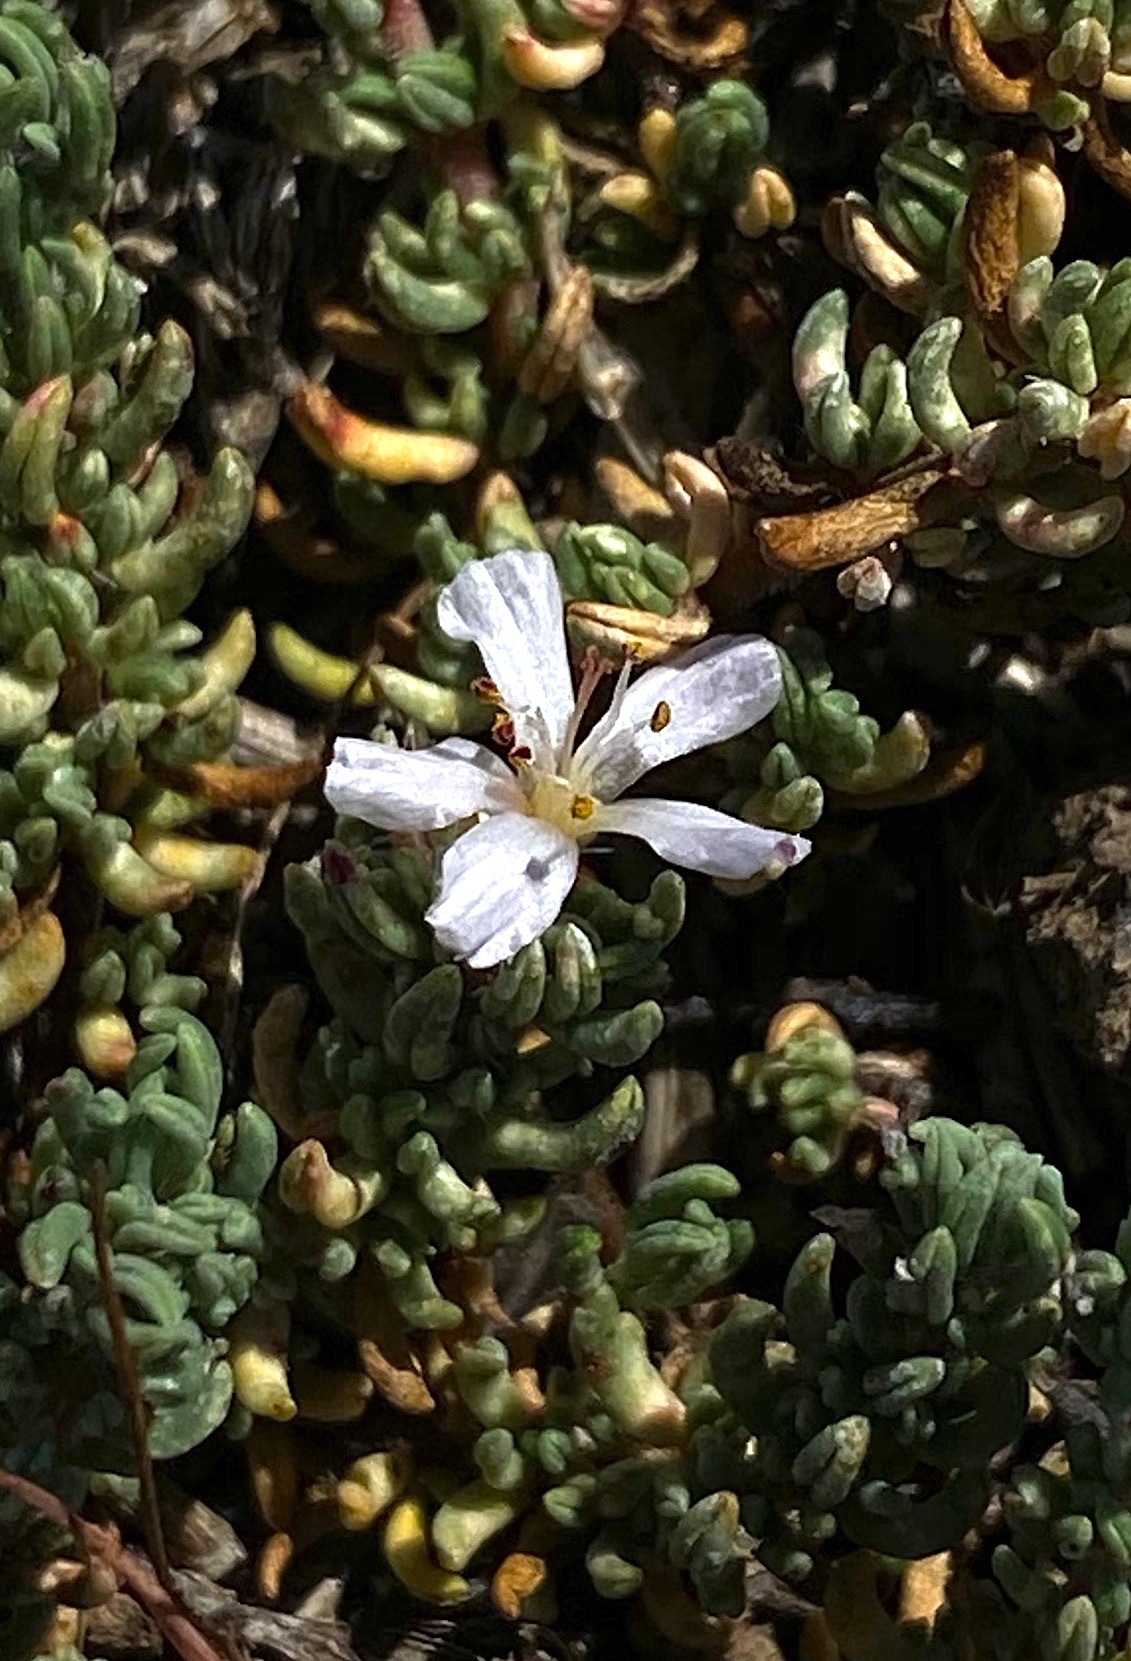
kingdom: Plantae
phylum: Tracheophyta
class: Magnoliopsida
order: Caryophyllales
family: Frankeniaceae
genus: Frankenia
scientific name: Frankenia hirsuta
